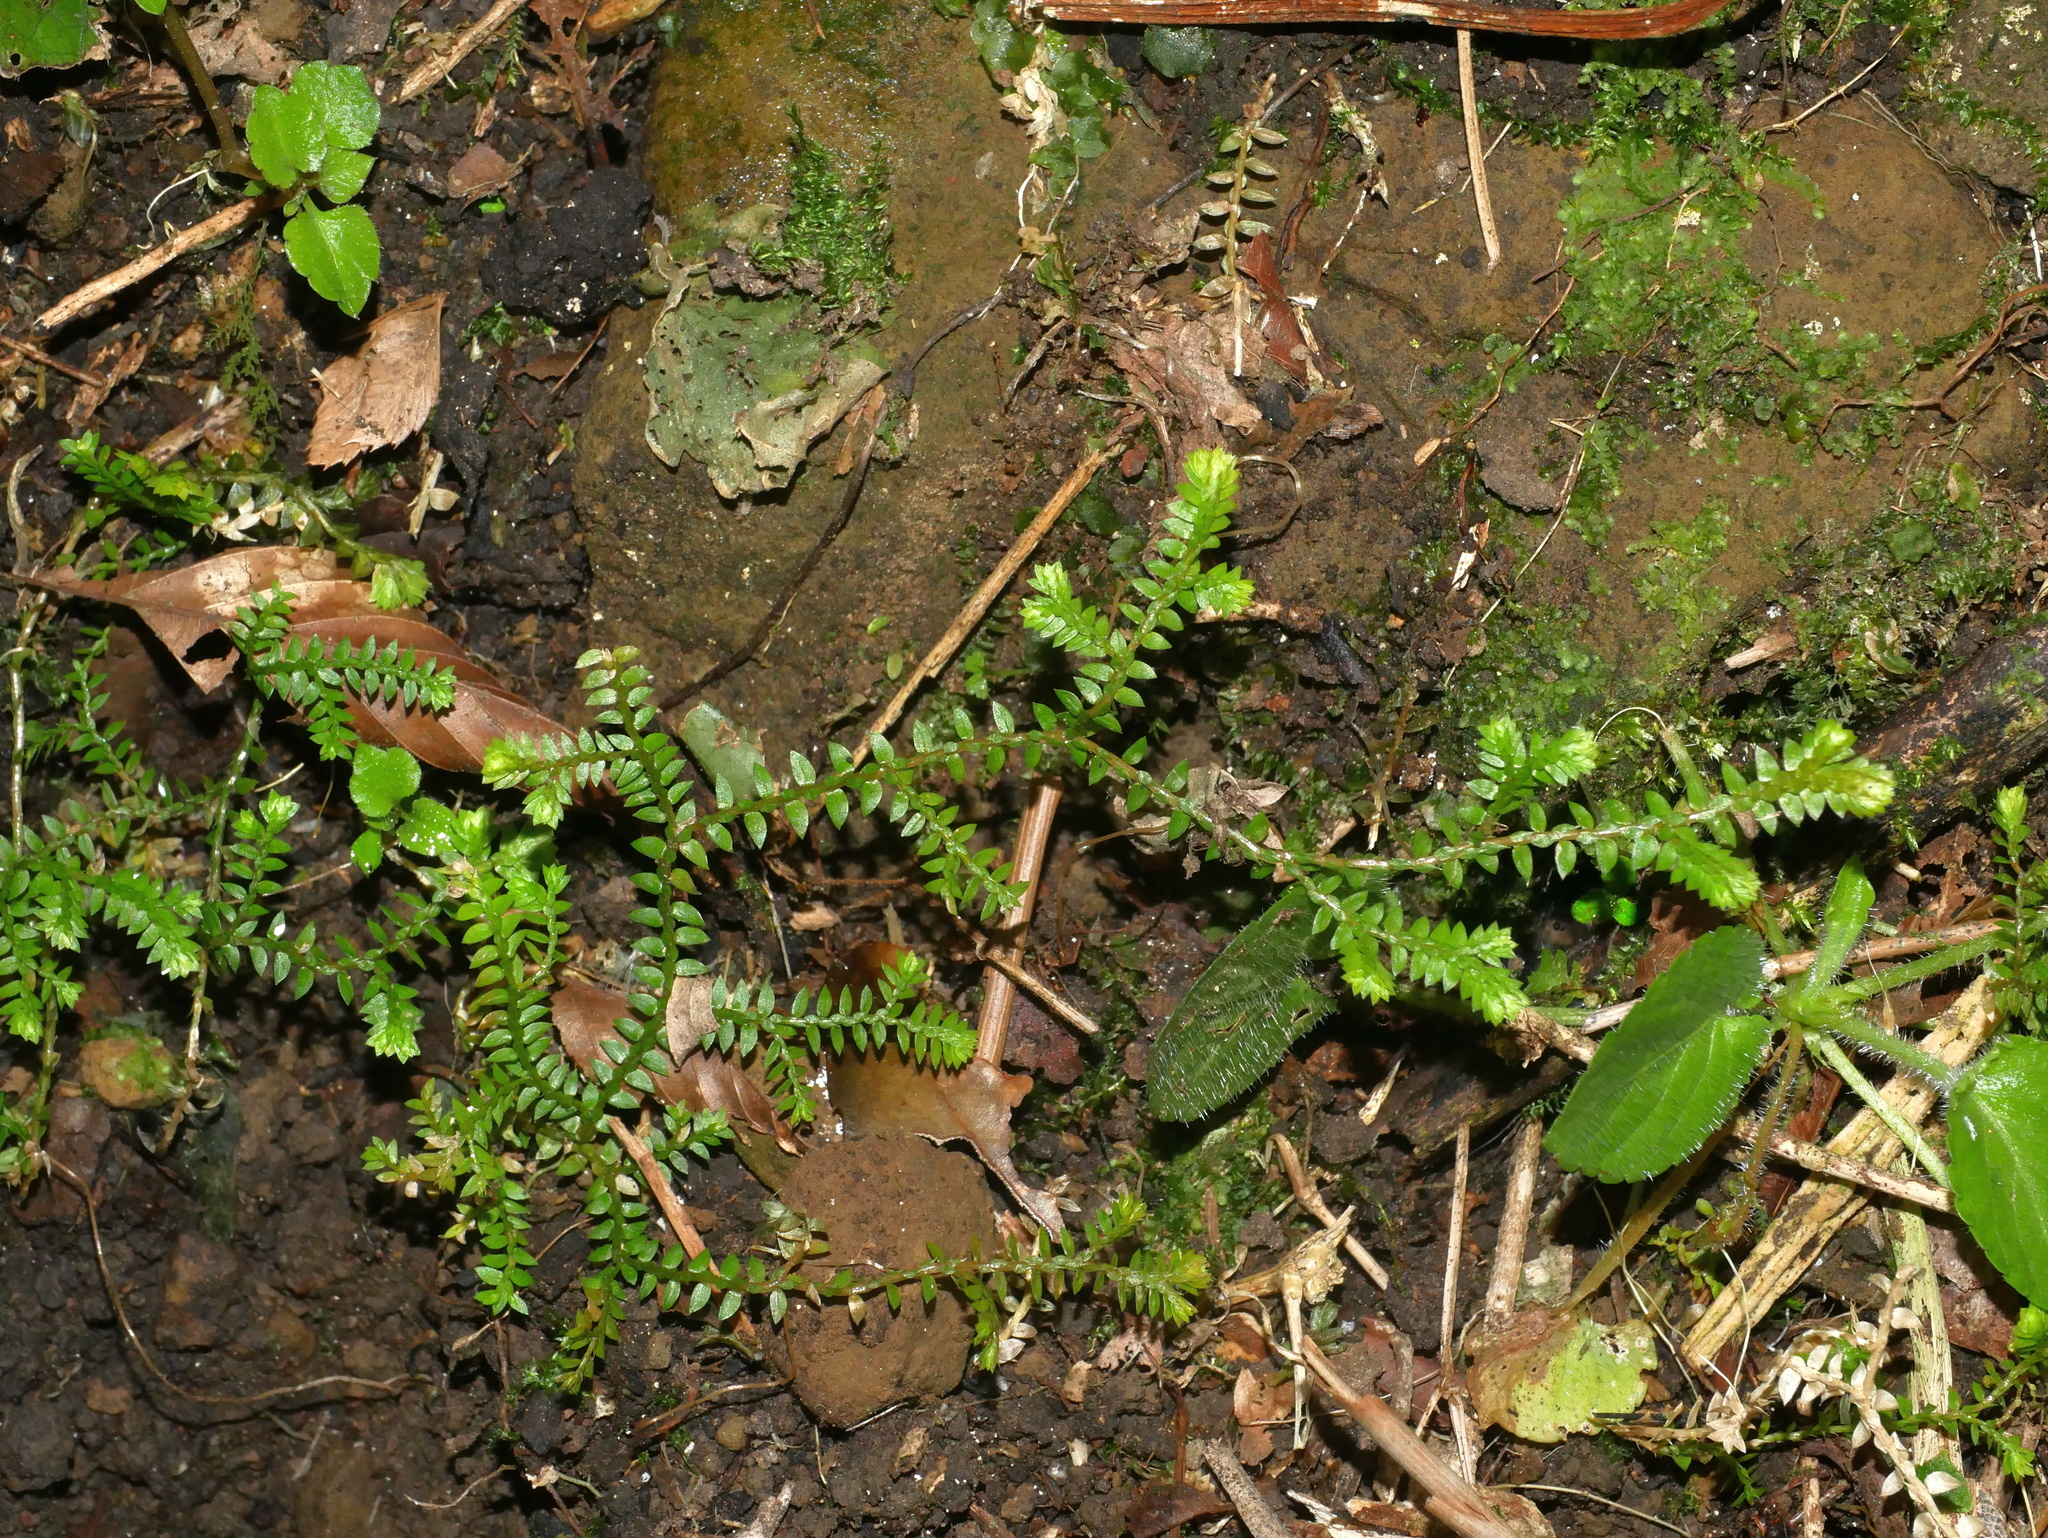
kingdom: Plantae
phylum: Tracheophyta
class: Lycopodiopsida
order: Selaginellales
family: Selaginellaceae
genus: Selaginella
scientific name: Selaginella remotifolia
